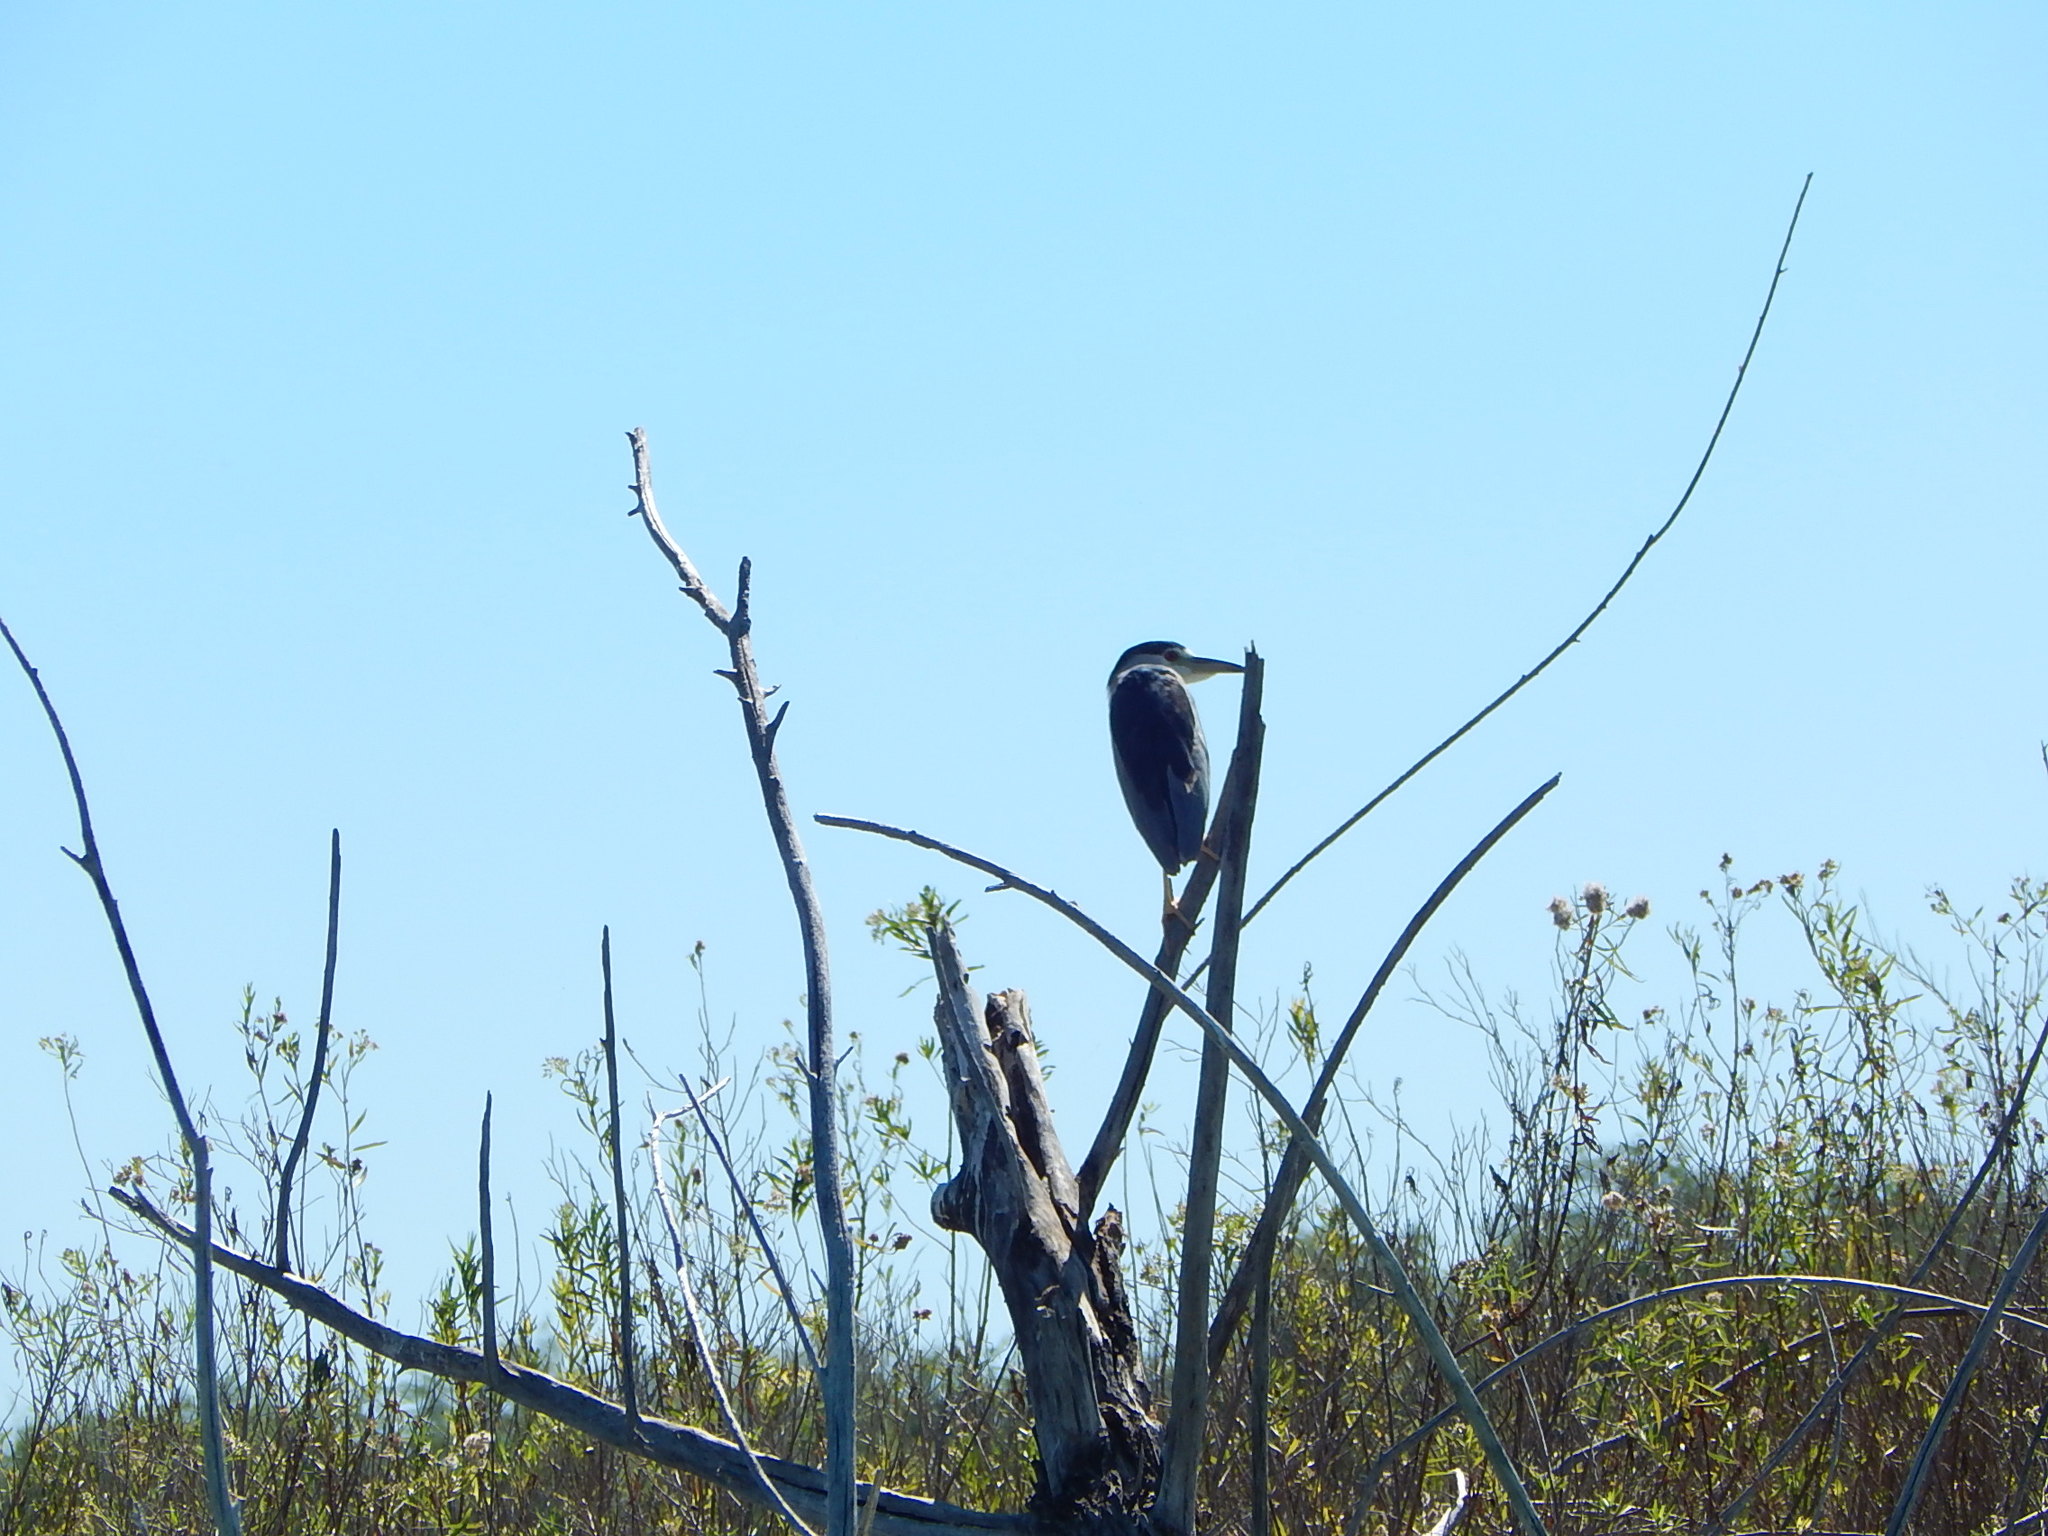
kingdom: Animalia
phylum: Chordata
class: Aves
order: Pelecaniformes
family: Ardeidae
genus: Nycticorax
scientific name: Nycticorax nycticorax
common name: Black-crowned night heron
